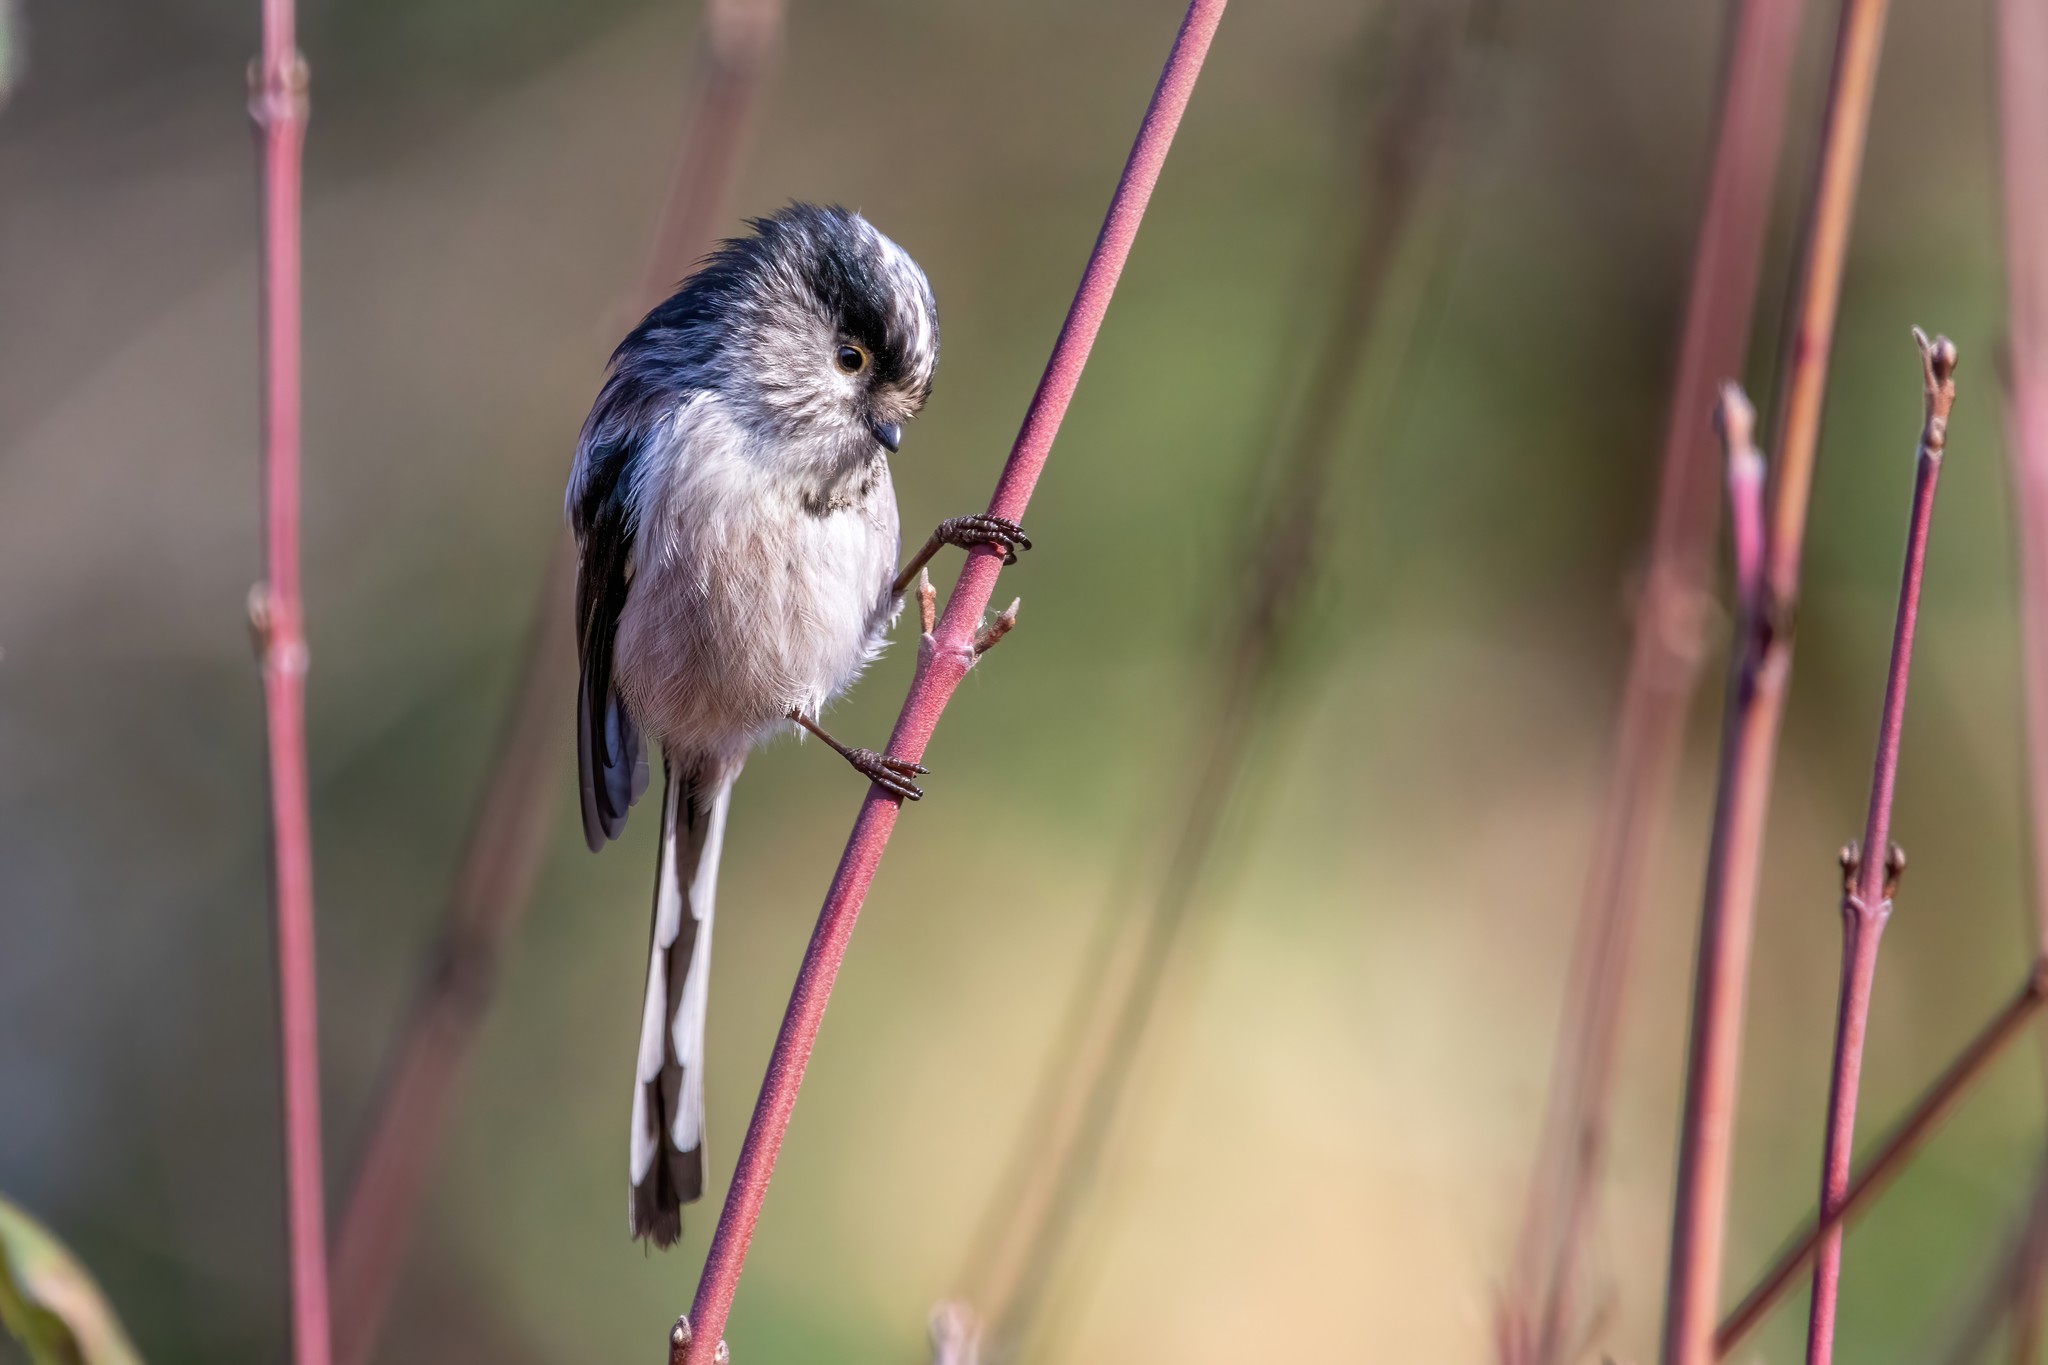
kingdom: Animalia
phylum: Chordata
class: Aves
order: Passeriformes
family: Aegithalidae
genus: Aegithalos
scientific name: Aegithalos caudatus
